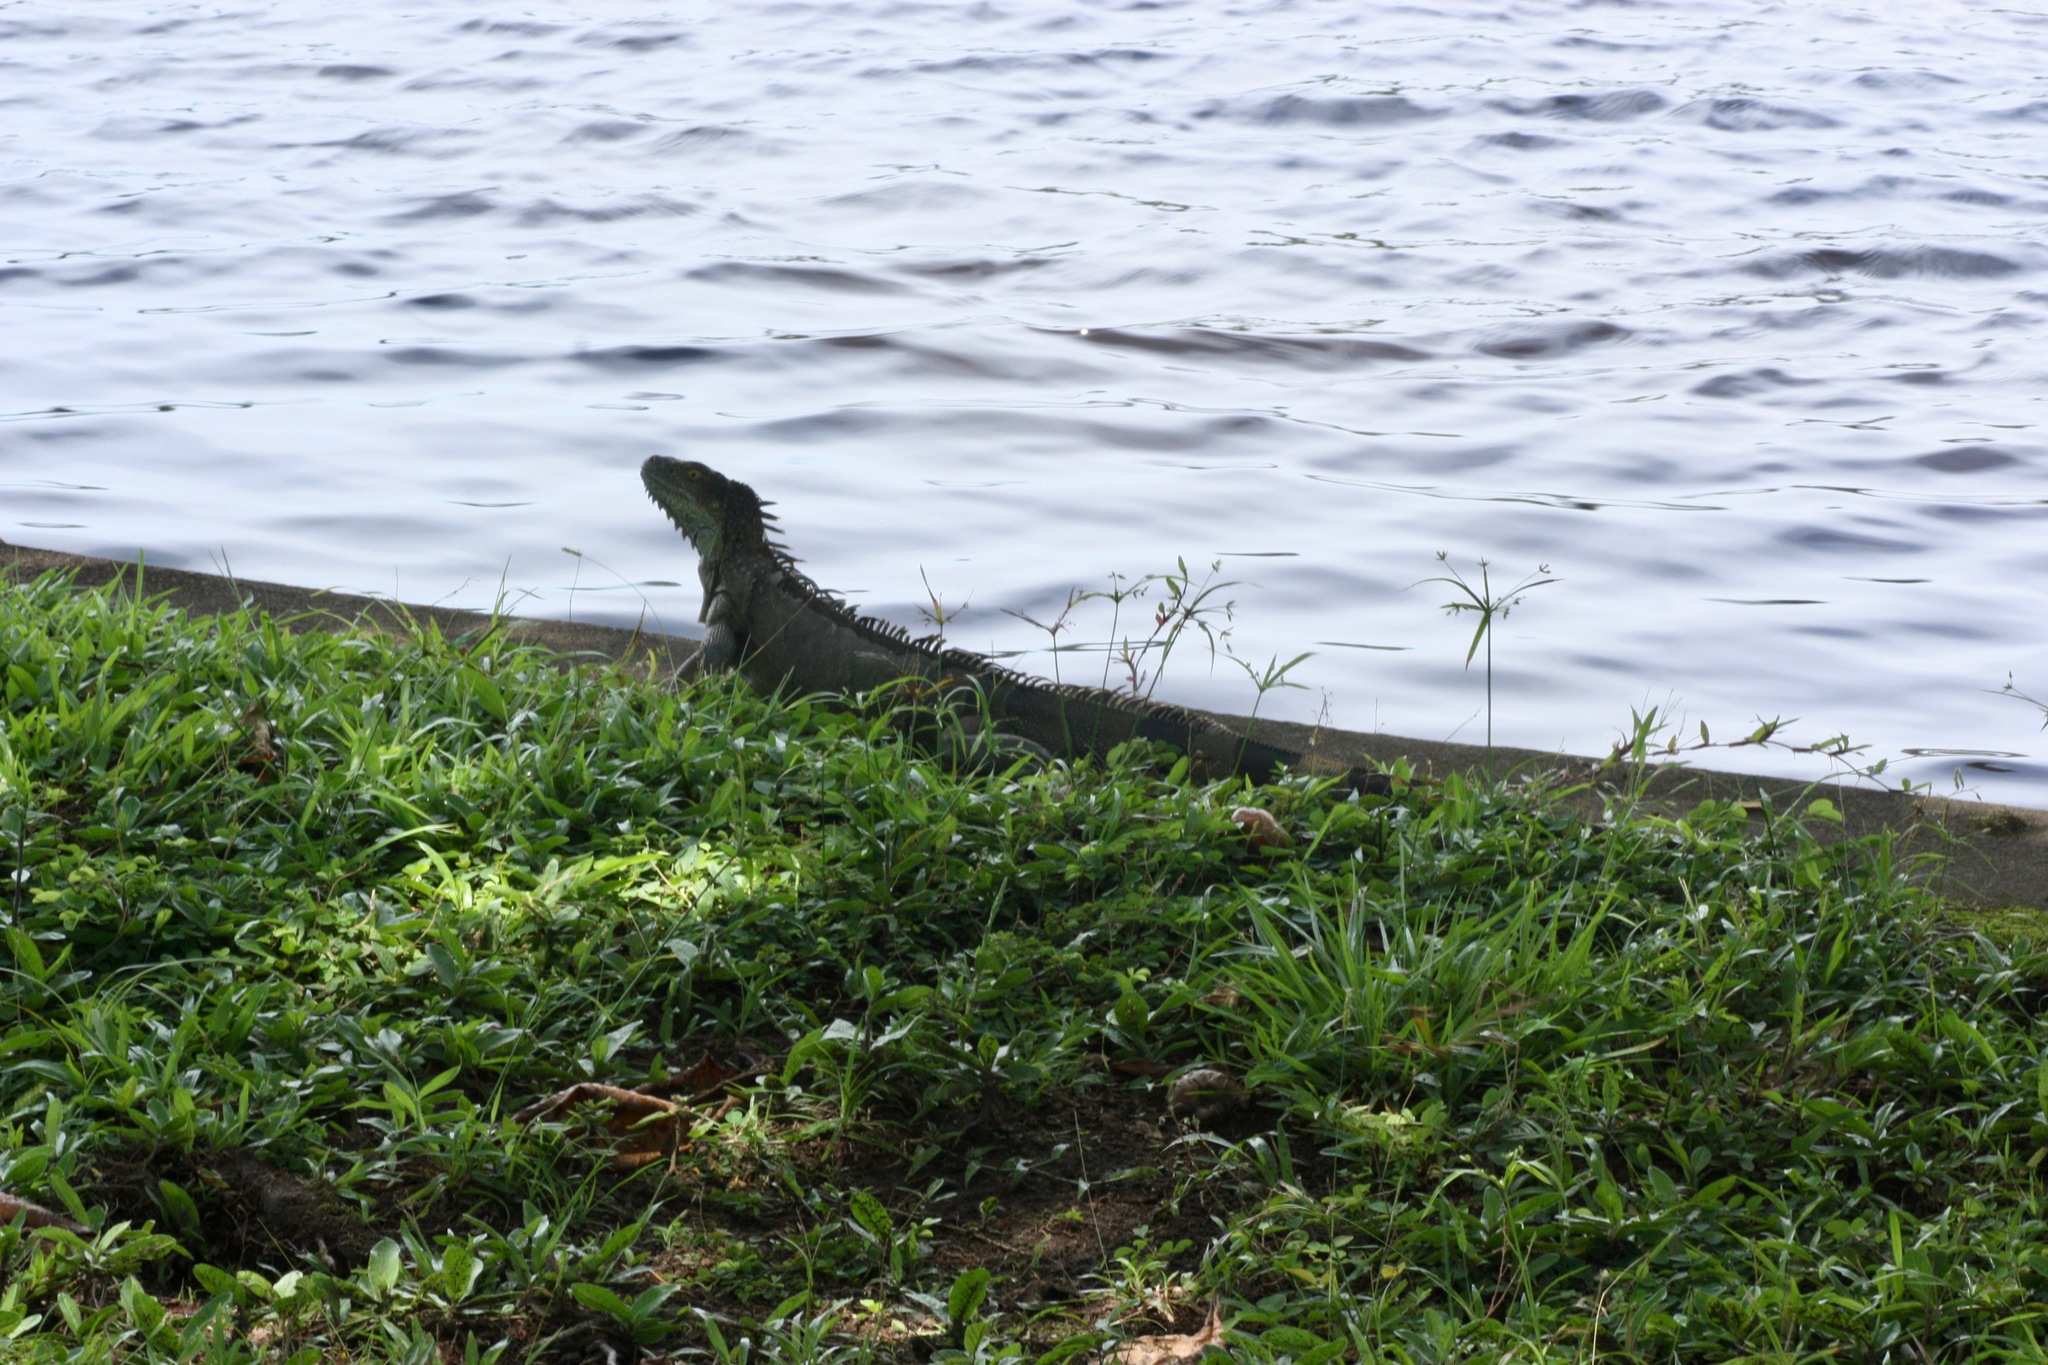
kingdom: Animalia
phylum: Chordata
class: Squamata
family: Iguanidae
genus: Iguana
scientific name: Iguana iguana
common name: Green iguana
